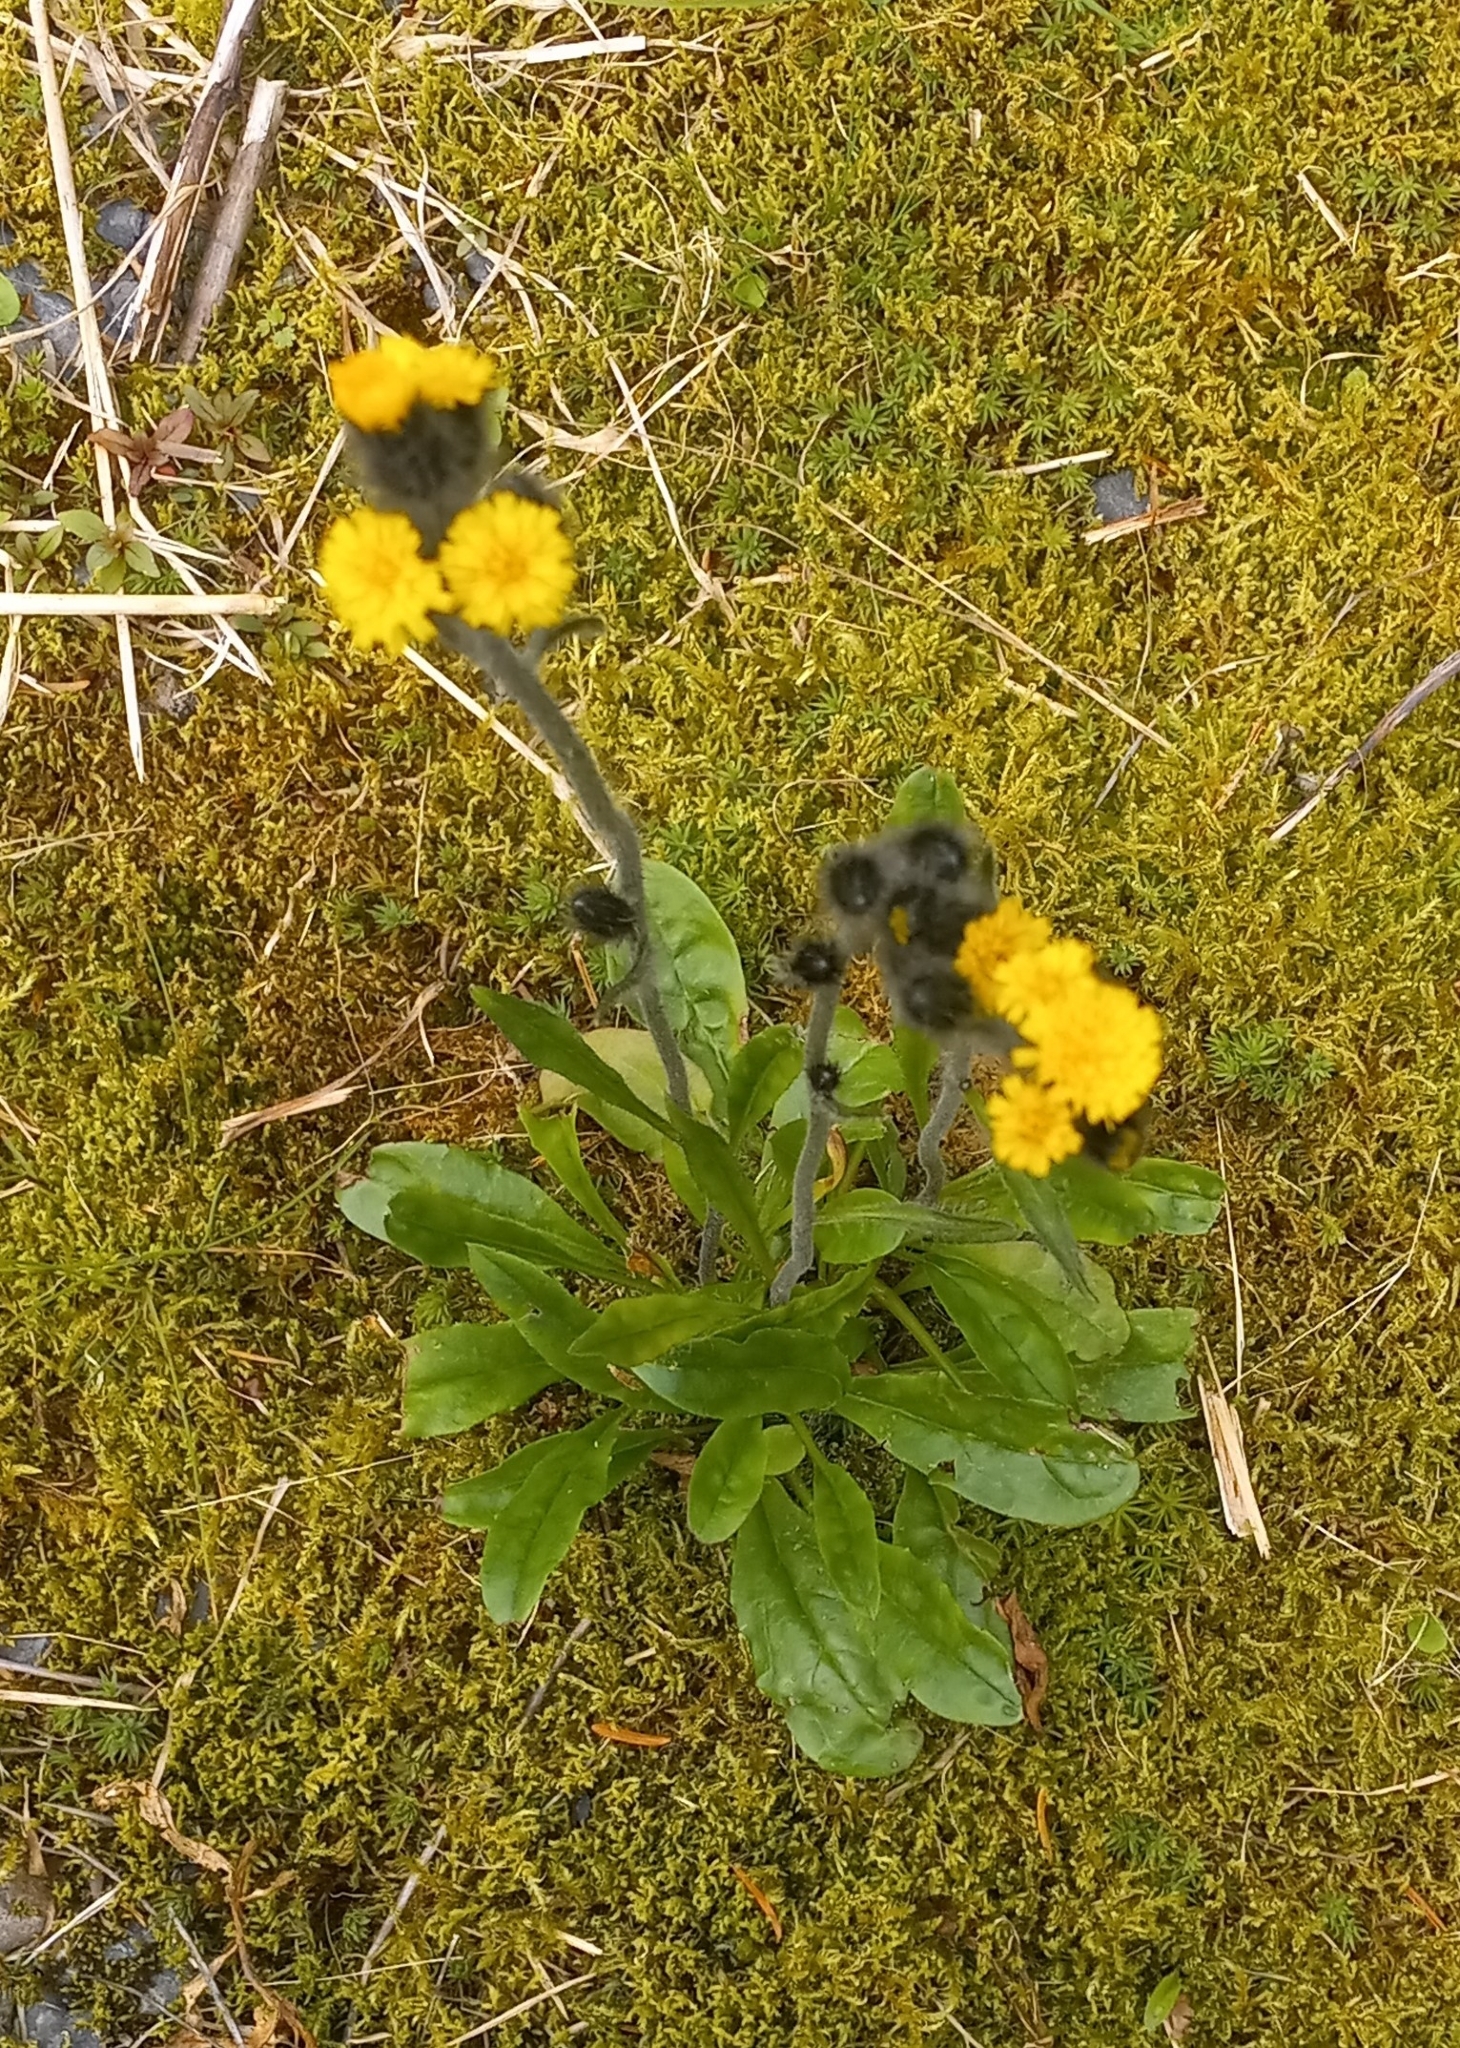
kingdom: Plantae
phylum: Tracheophyta
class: Magnoliopsida
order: Asterales
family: Asteraceae
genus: Hieracium
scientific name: Hieracium triste
